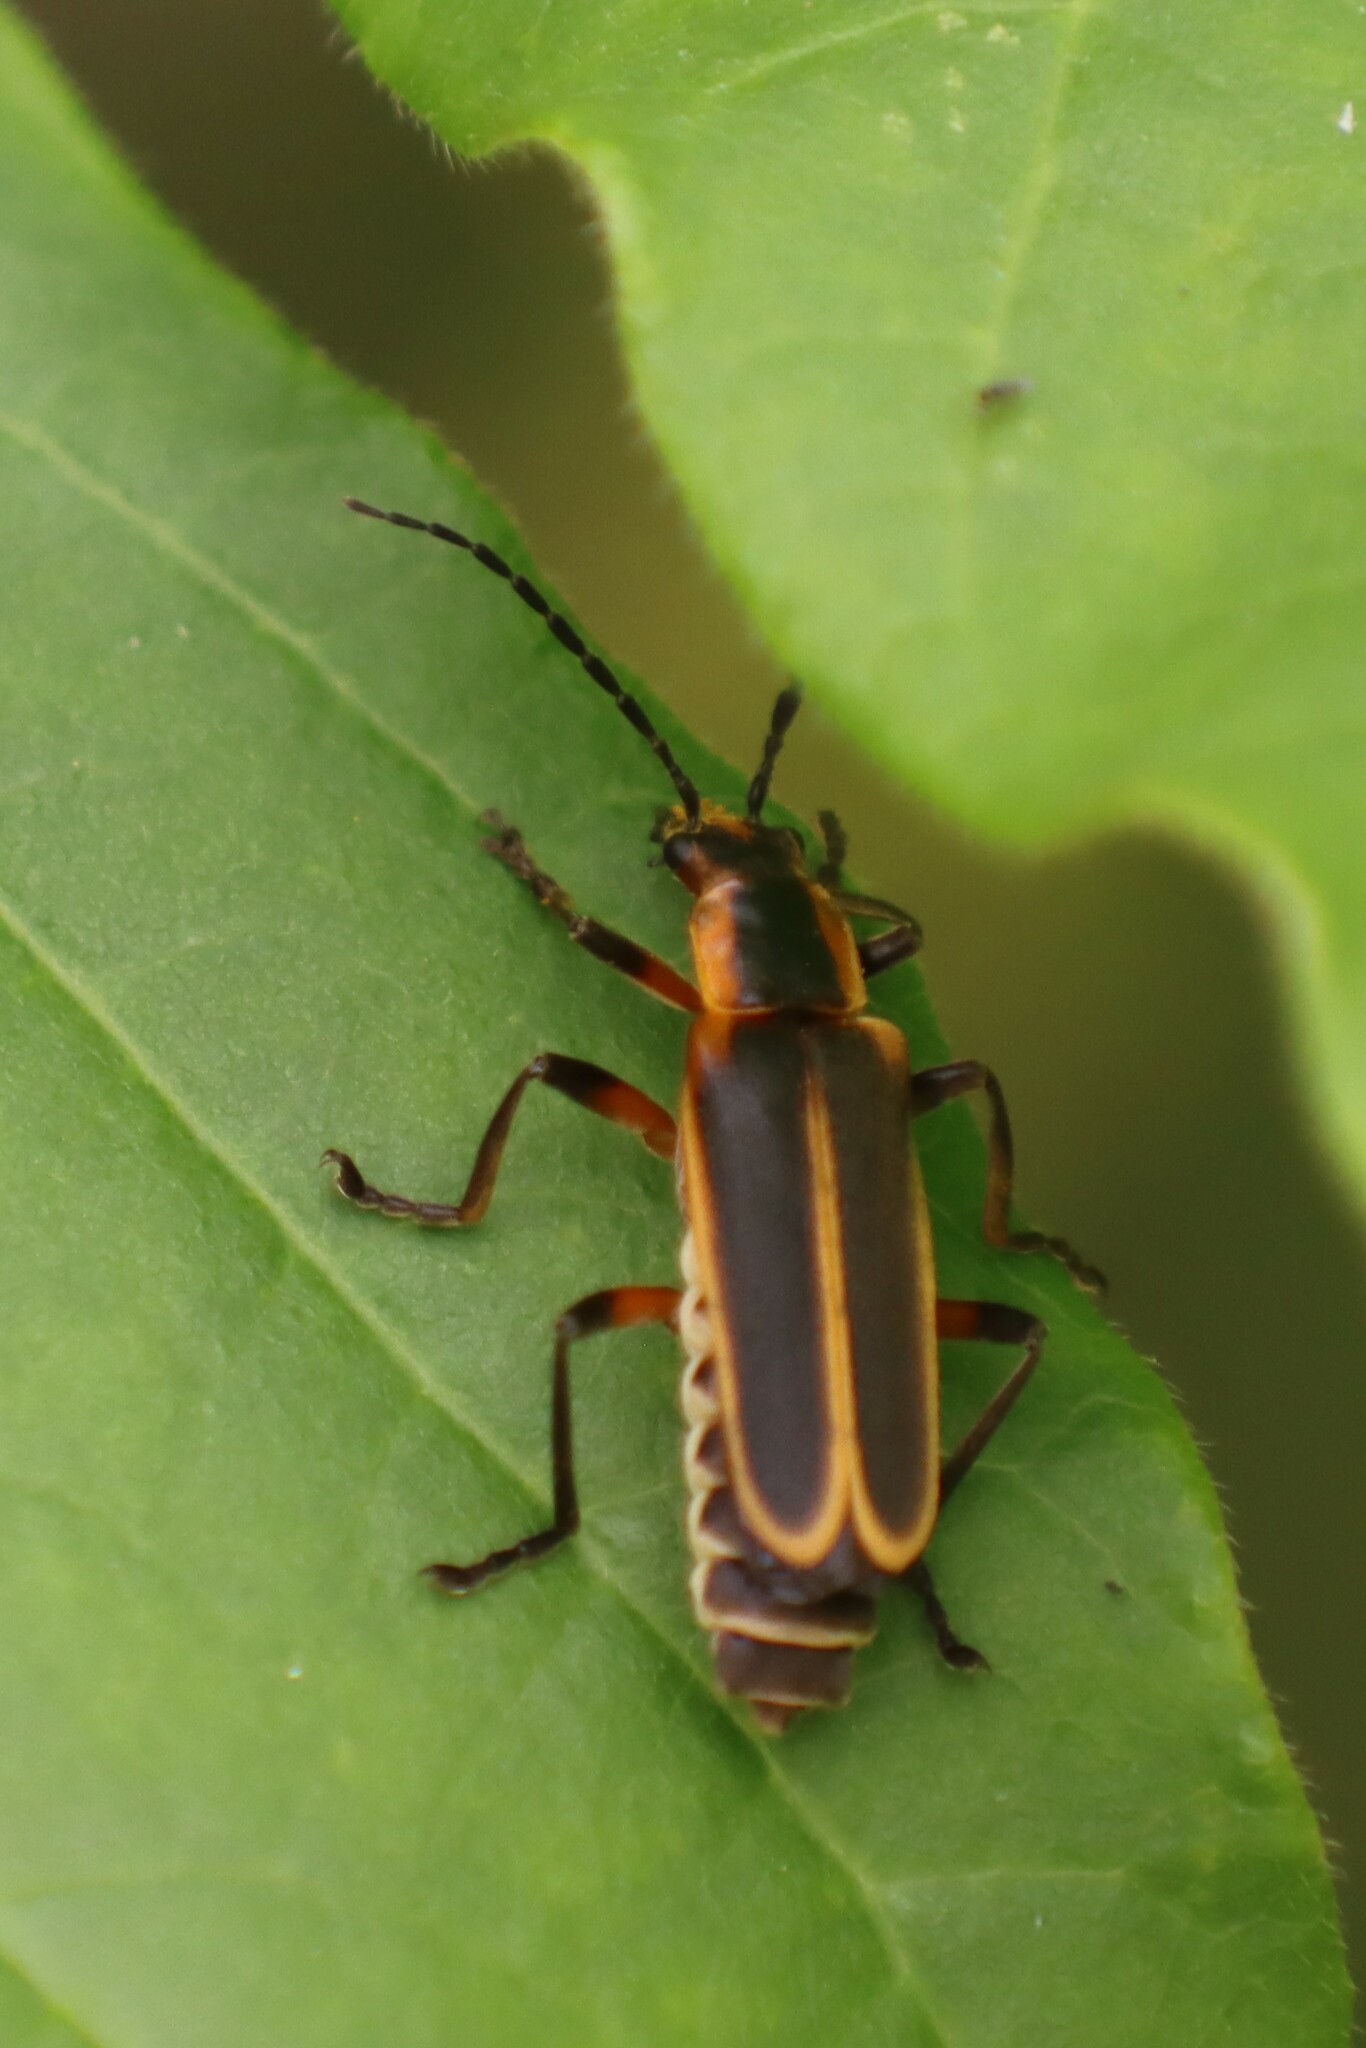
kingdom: Animalia
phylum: Arthropoda
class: Insecta
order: Coleoptera
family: Cantharidae
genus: Chauliognathus
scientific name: Chauliognathus marginatus
